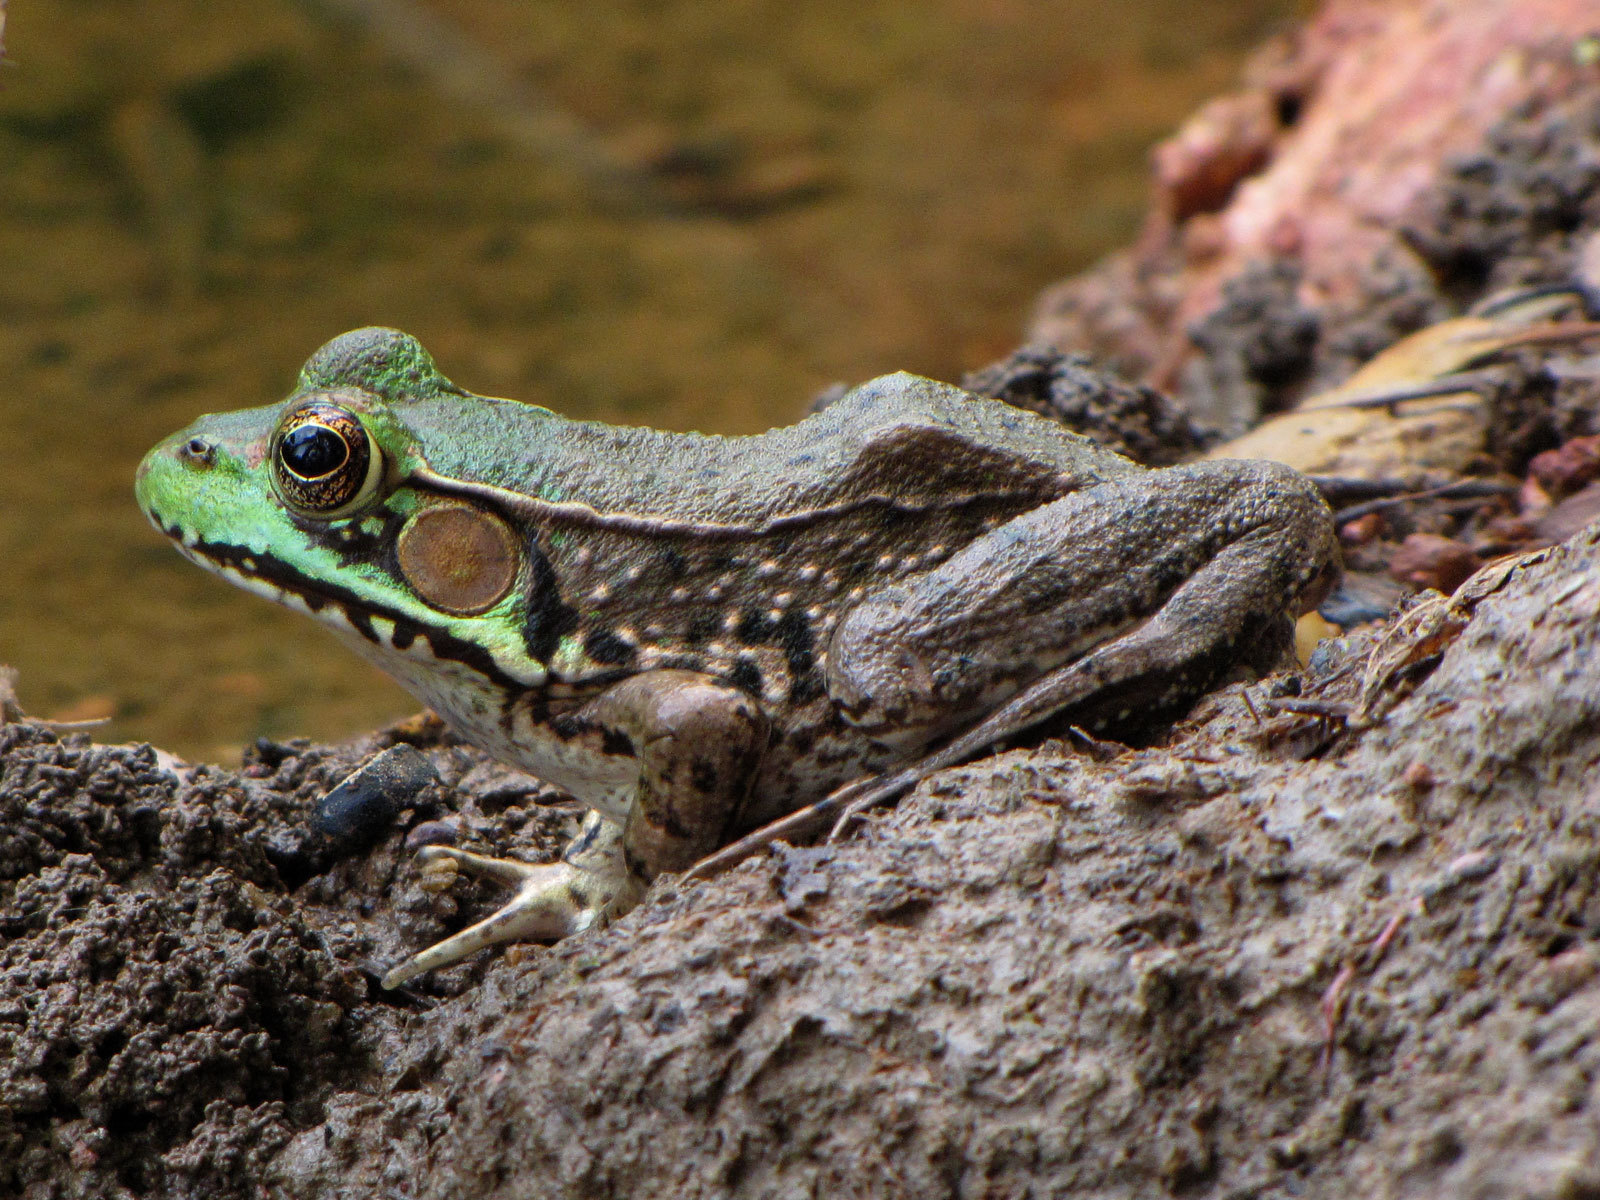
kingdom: Animalia
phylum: Chordata
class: Amphibia
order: Anura
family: Ranidae
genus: Lithobates
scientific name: Lithobates clamitans
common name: Green frog
